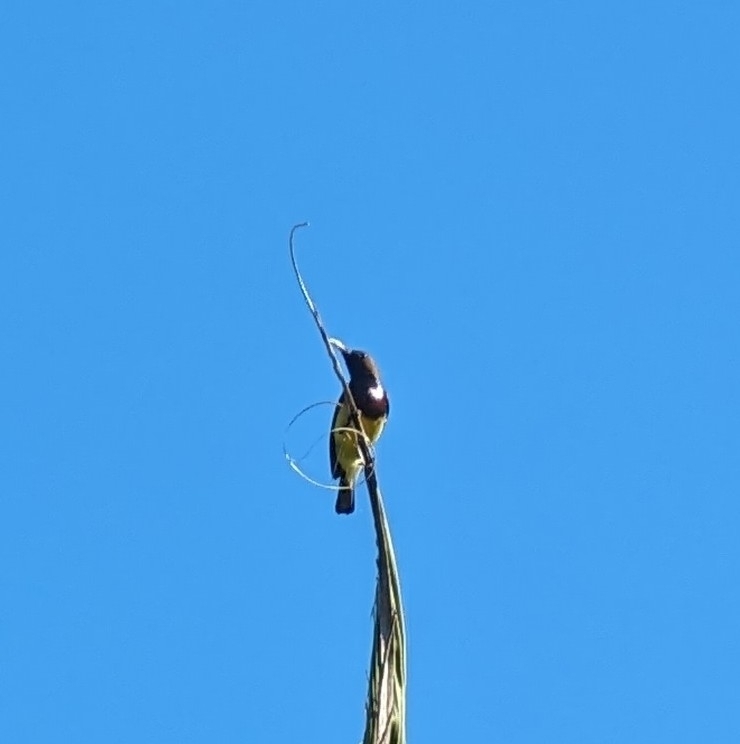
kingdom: Animalia
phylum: Chordata
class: Aves
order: Passeriformes
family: Nectariniidae
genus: Cinnyris
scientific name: Cinnyris
